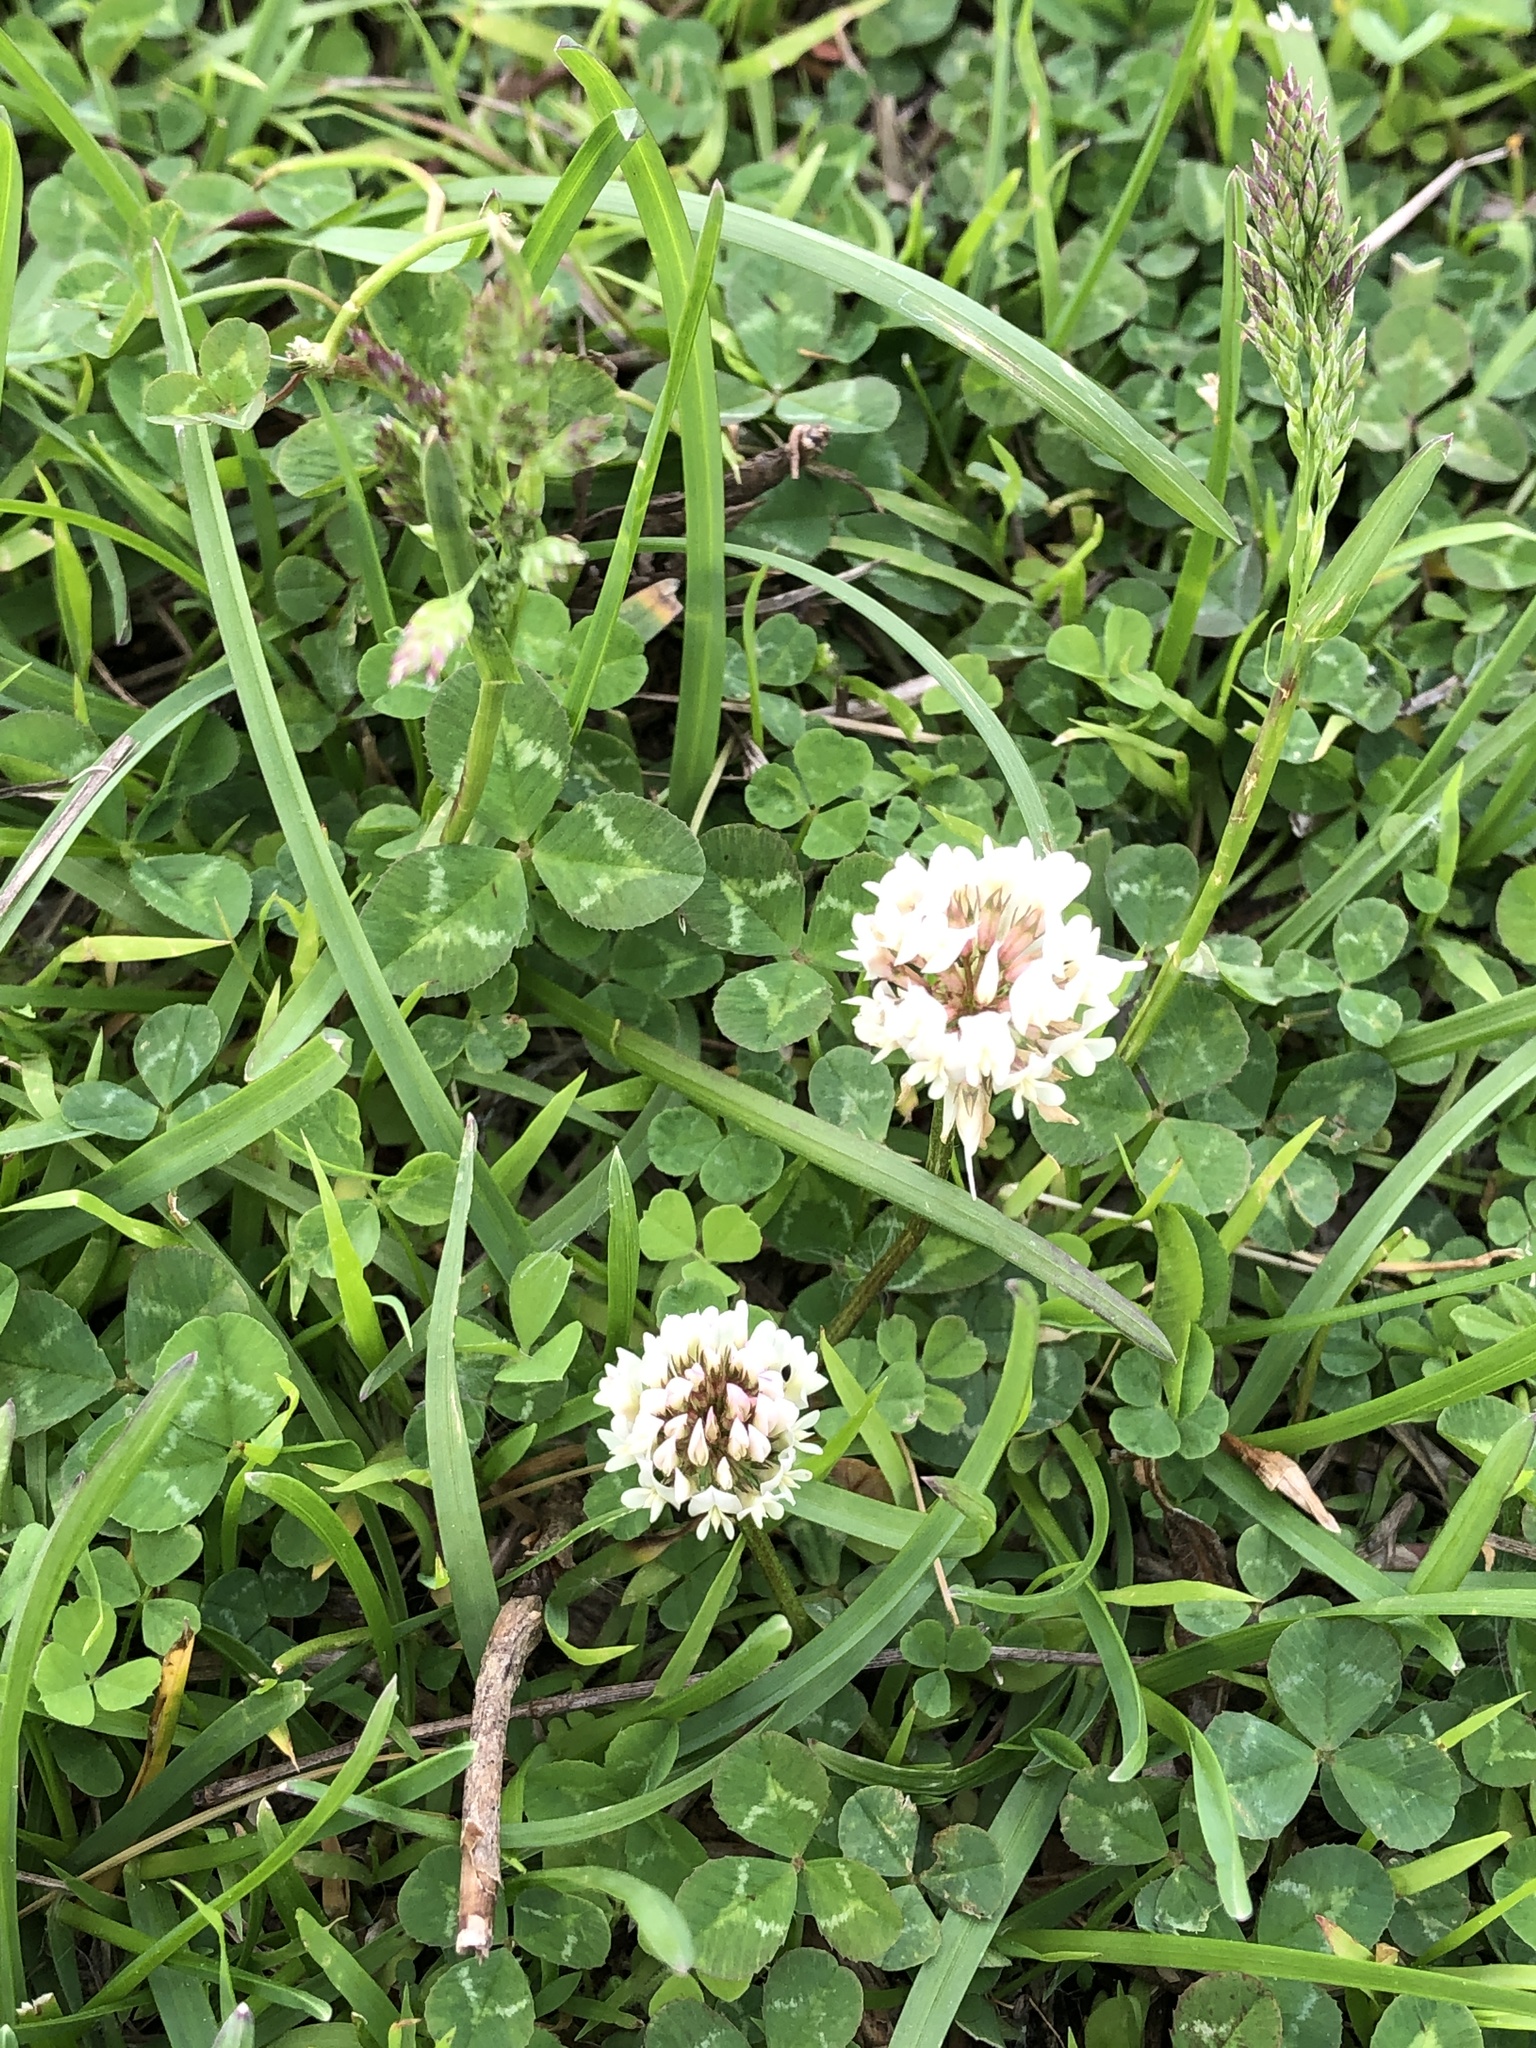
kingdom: Plantae
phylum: Tracheophyta
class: Magnoliopsida
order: Fabales
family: Fabaceae
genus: Trifolium
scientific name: Trifolium repens
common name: White clover
